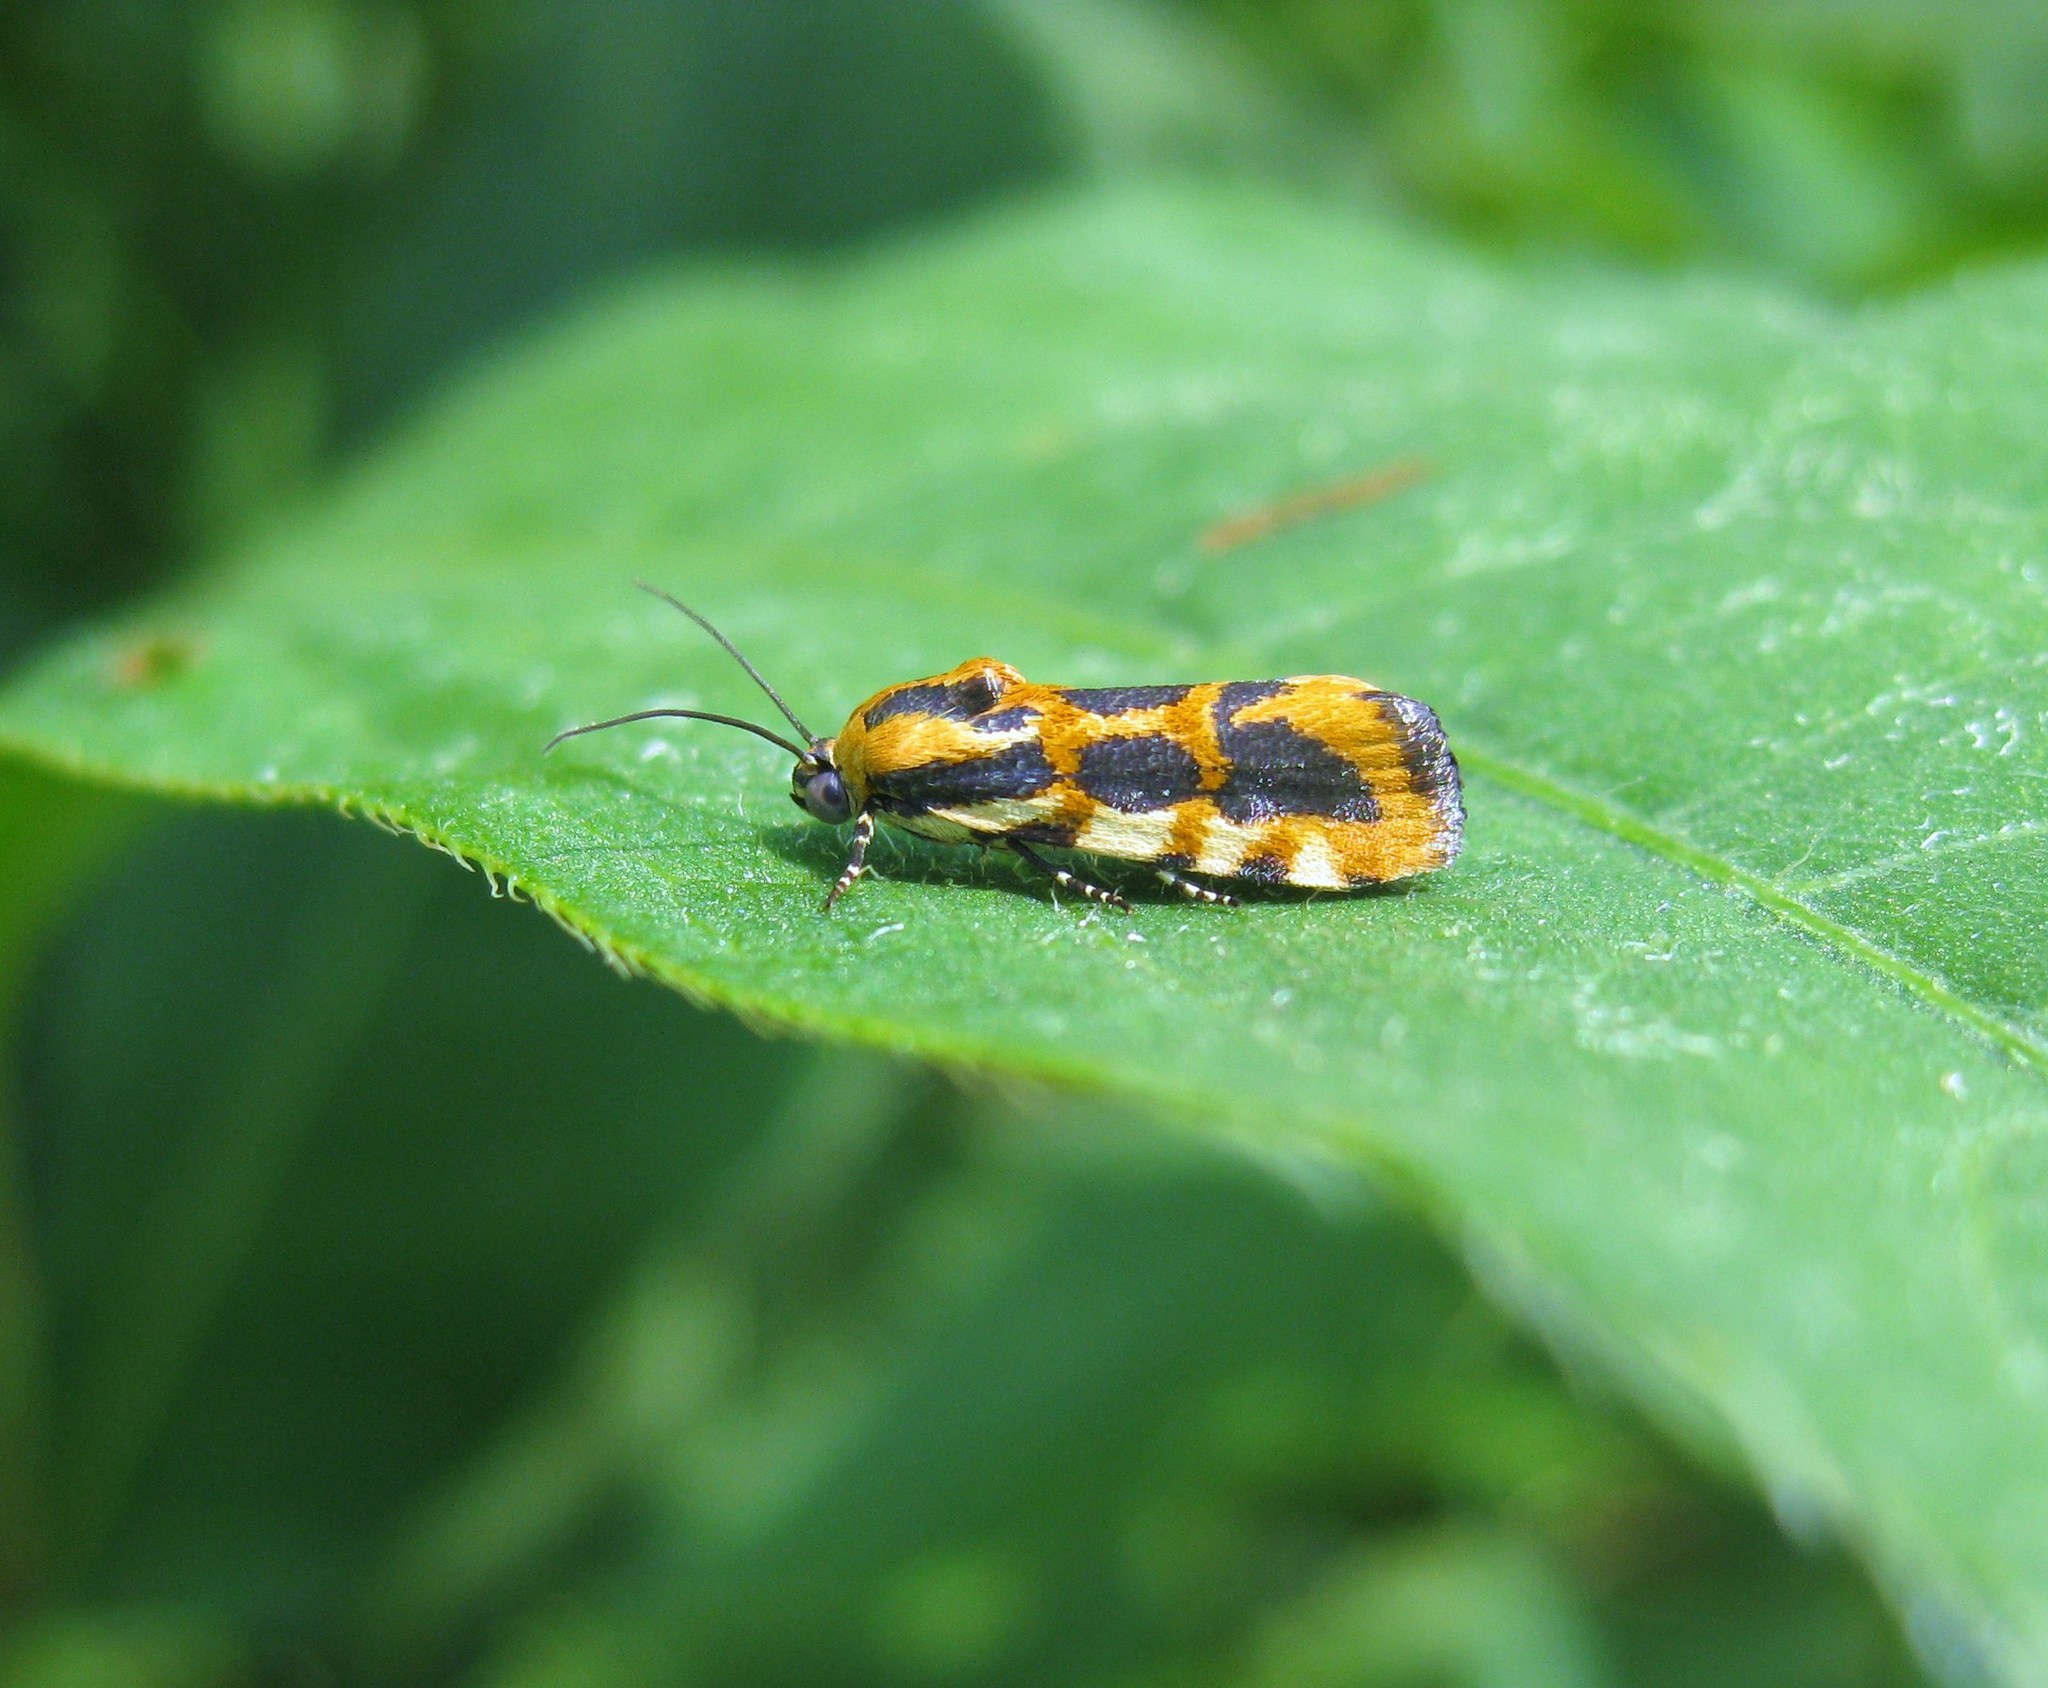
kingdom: Animalia
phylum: Arthropoda
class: Insecta
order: Lepidoptera
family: Noctuidae
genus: Acontia
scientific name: Acontia leo
